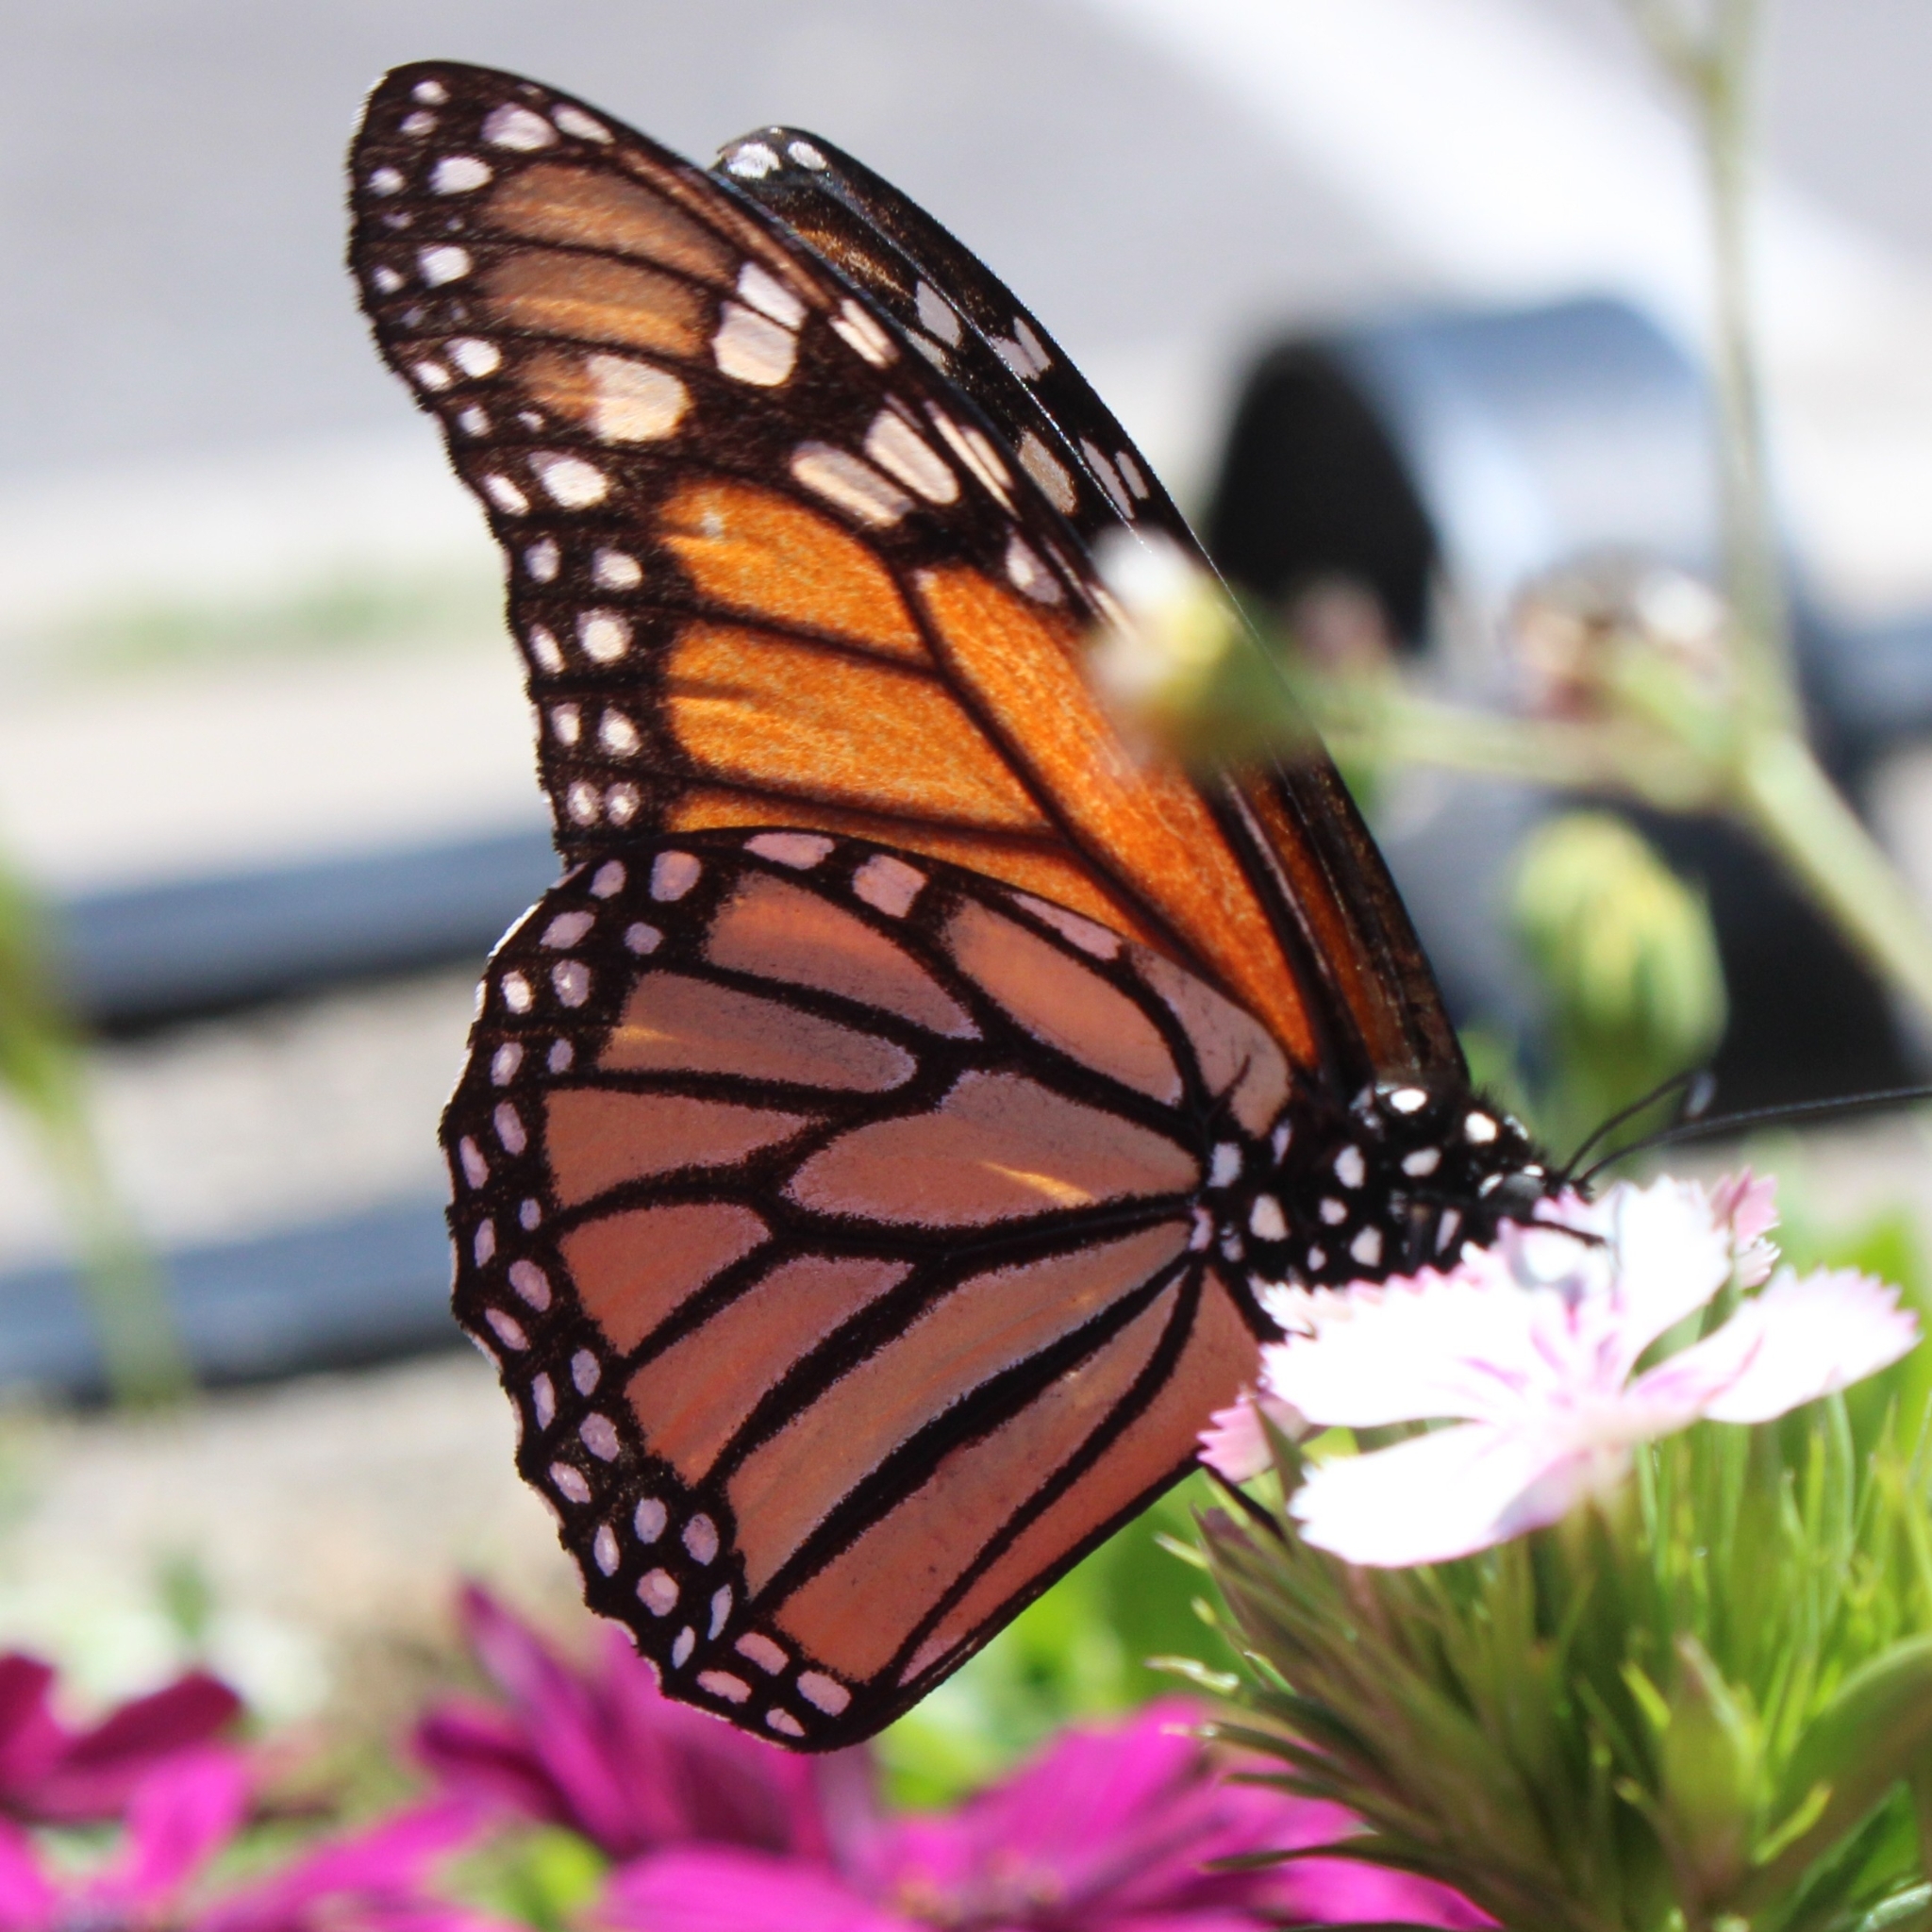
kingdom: Animalia
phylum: Arthropoda
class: Insecta
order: Lepidoptera
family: Nymphalidae
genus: Danaus
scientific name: Danaus plexippus
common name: Monarch
